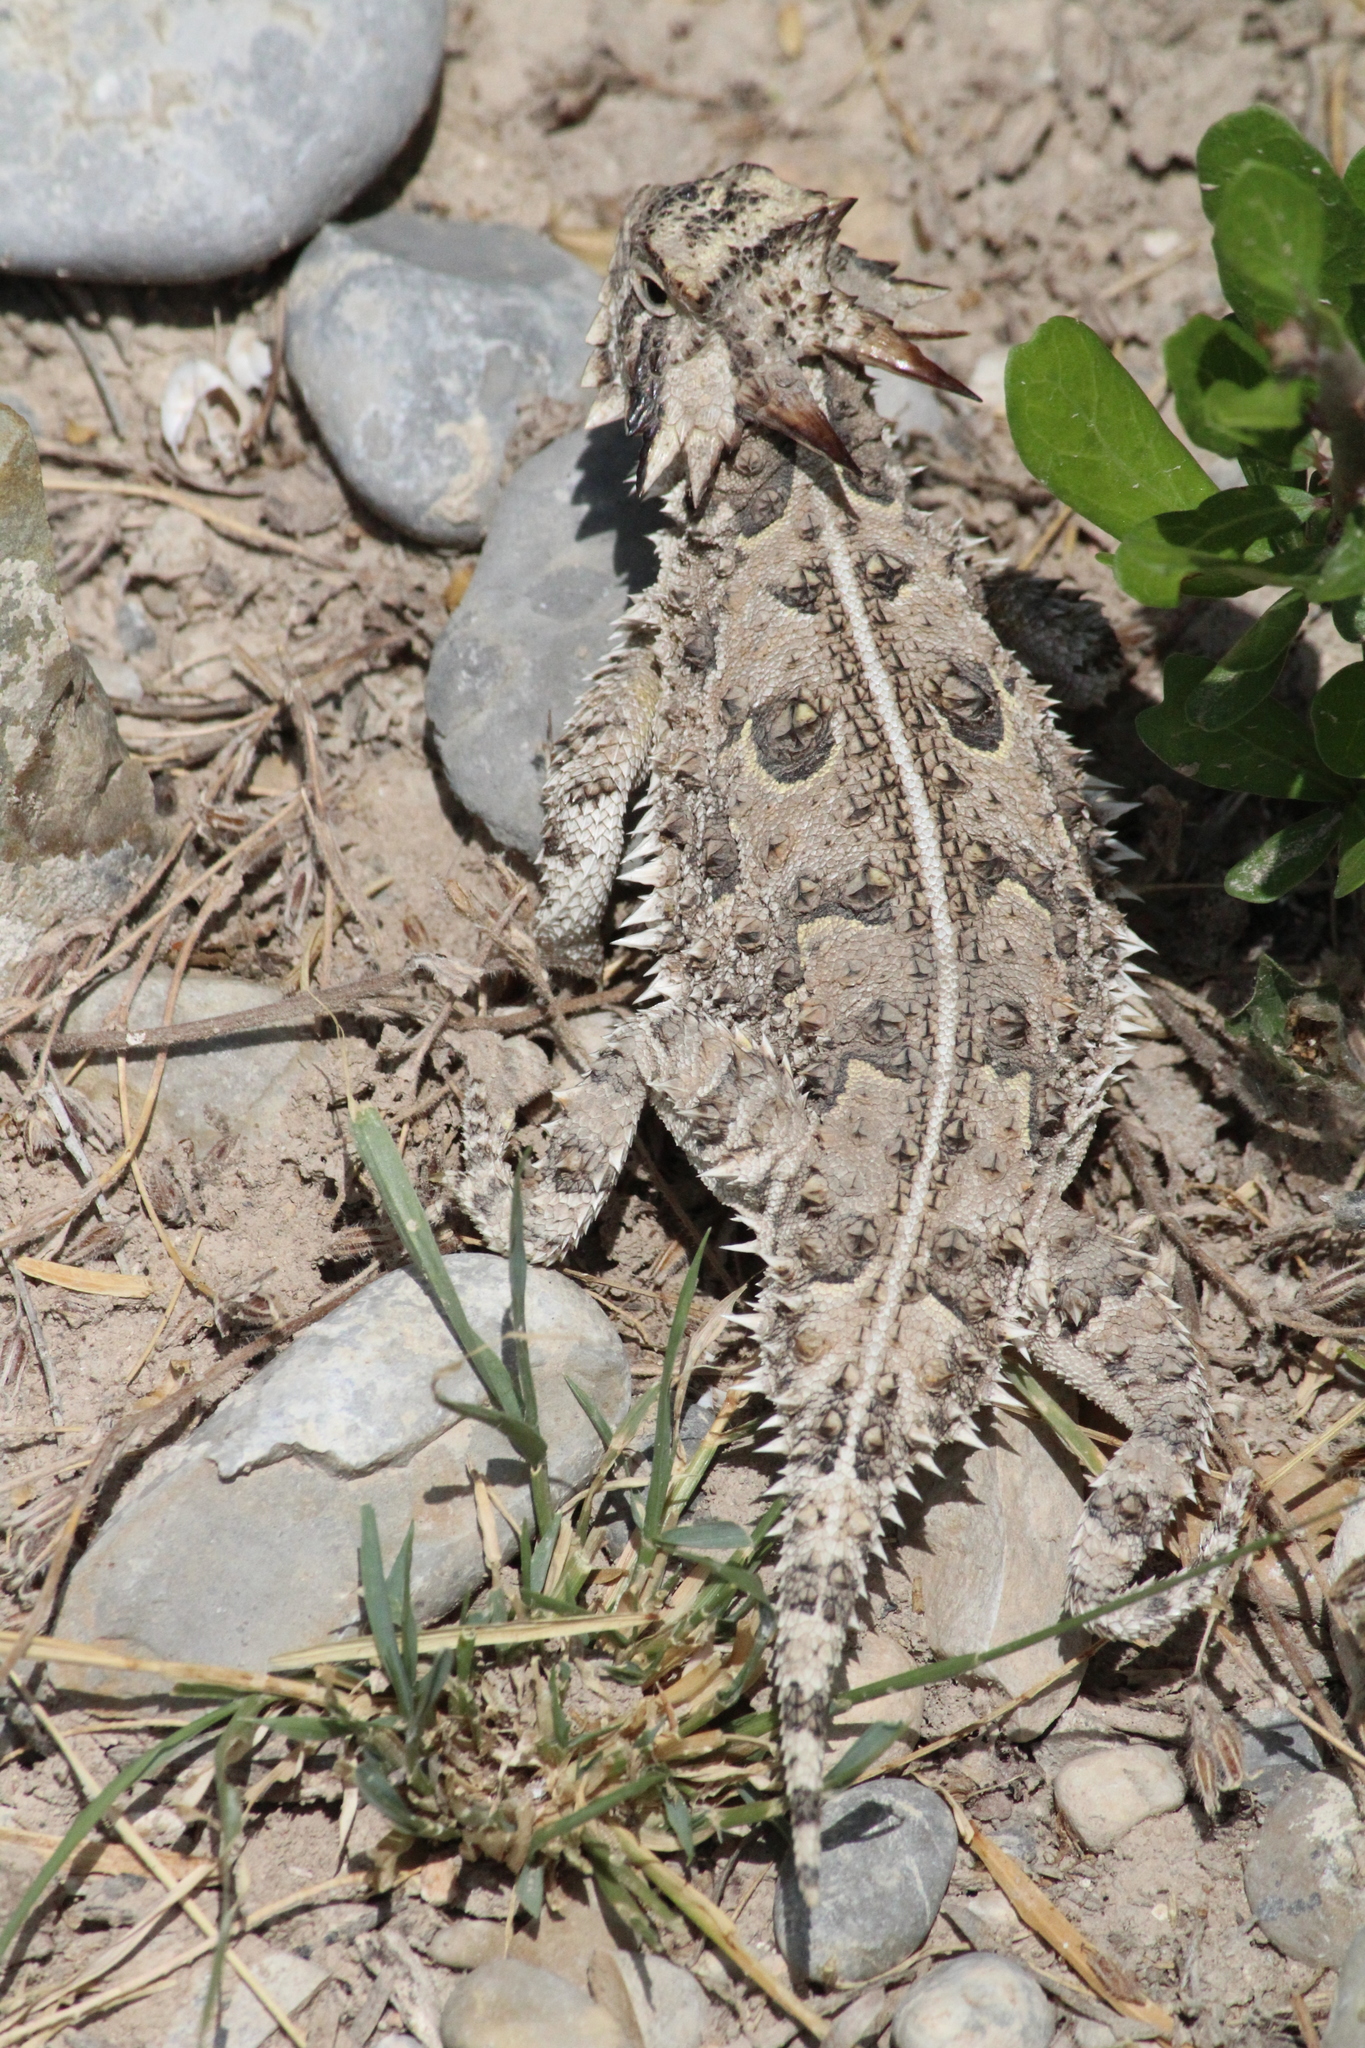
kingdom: Animalia
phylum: Chordata
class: Squamata
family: Phrynosomatidae
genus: Phrynosoma
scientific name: Phrynosoma cornutum
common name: Texas horned lizard
